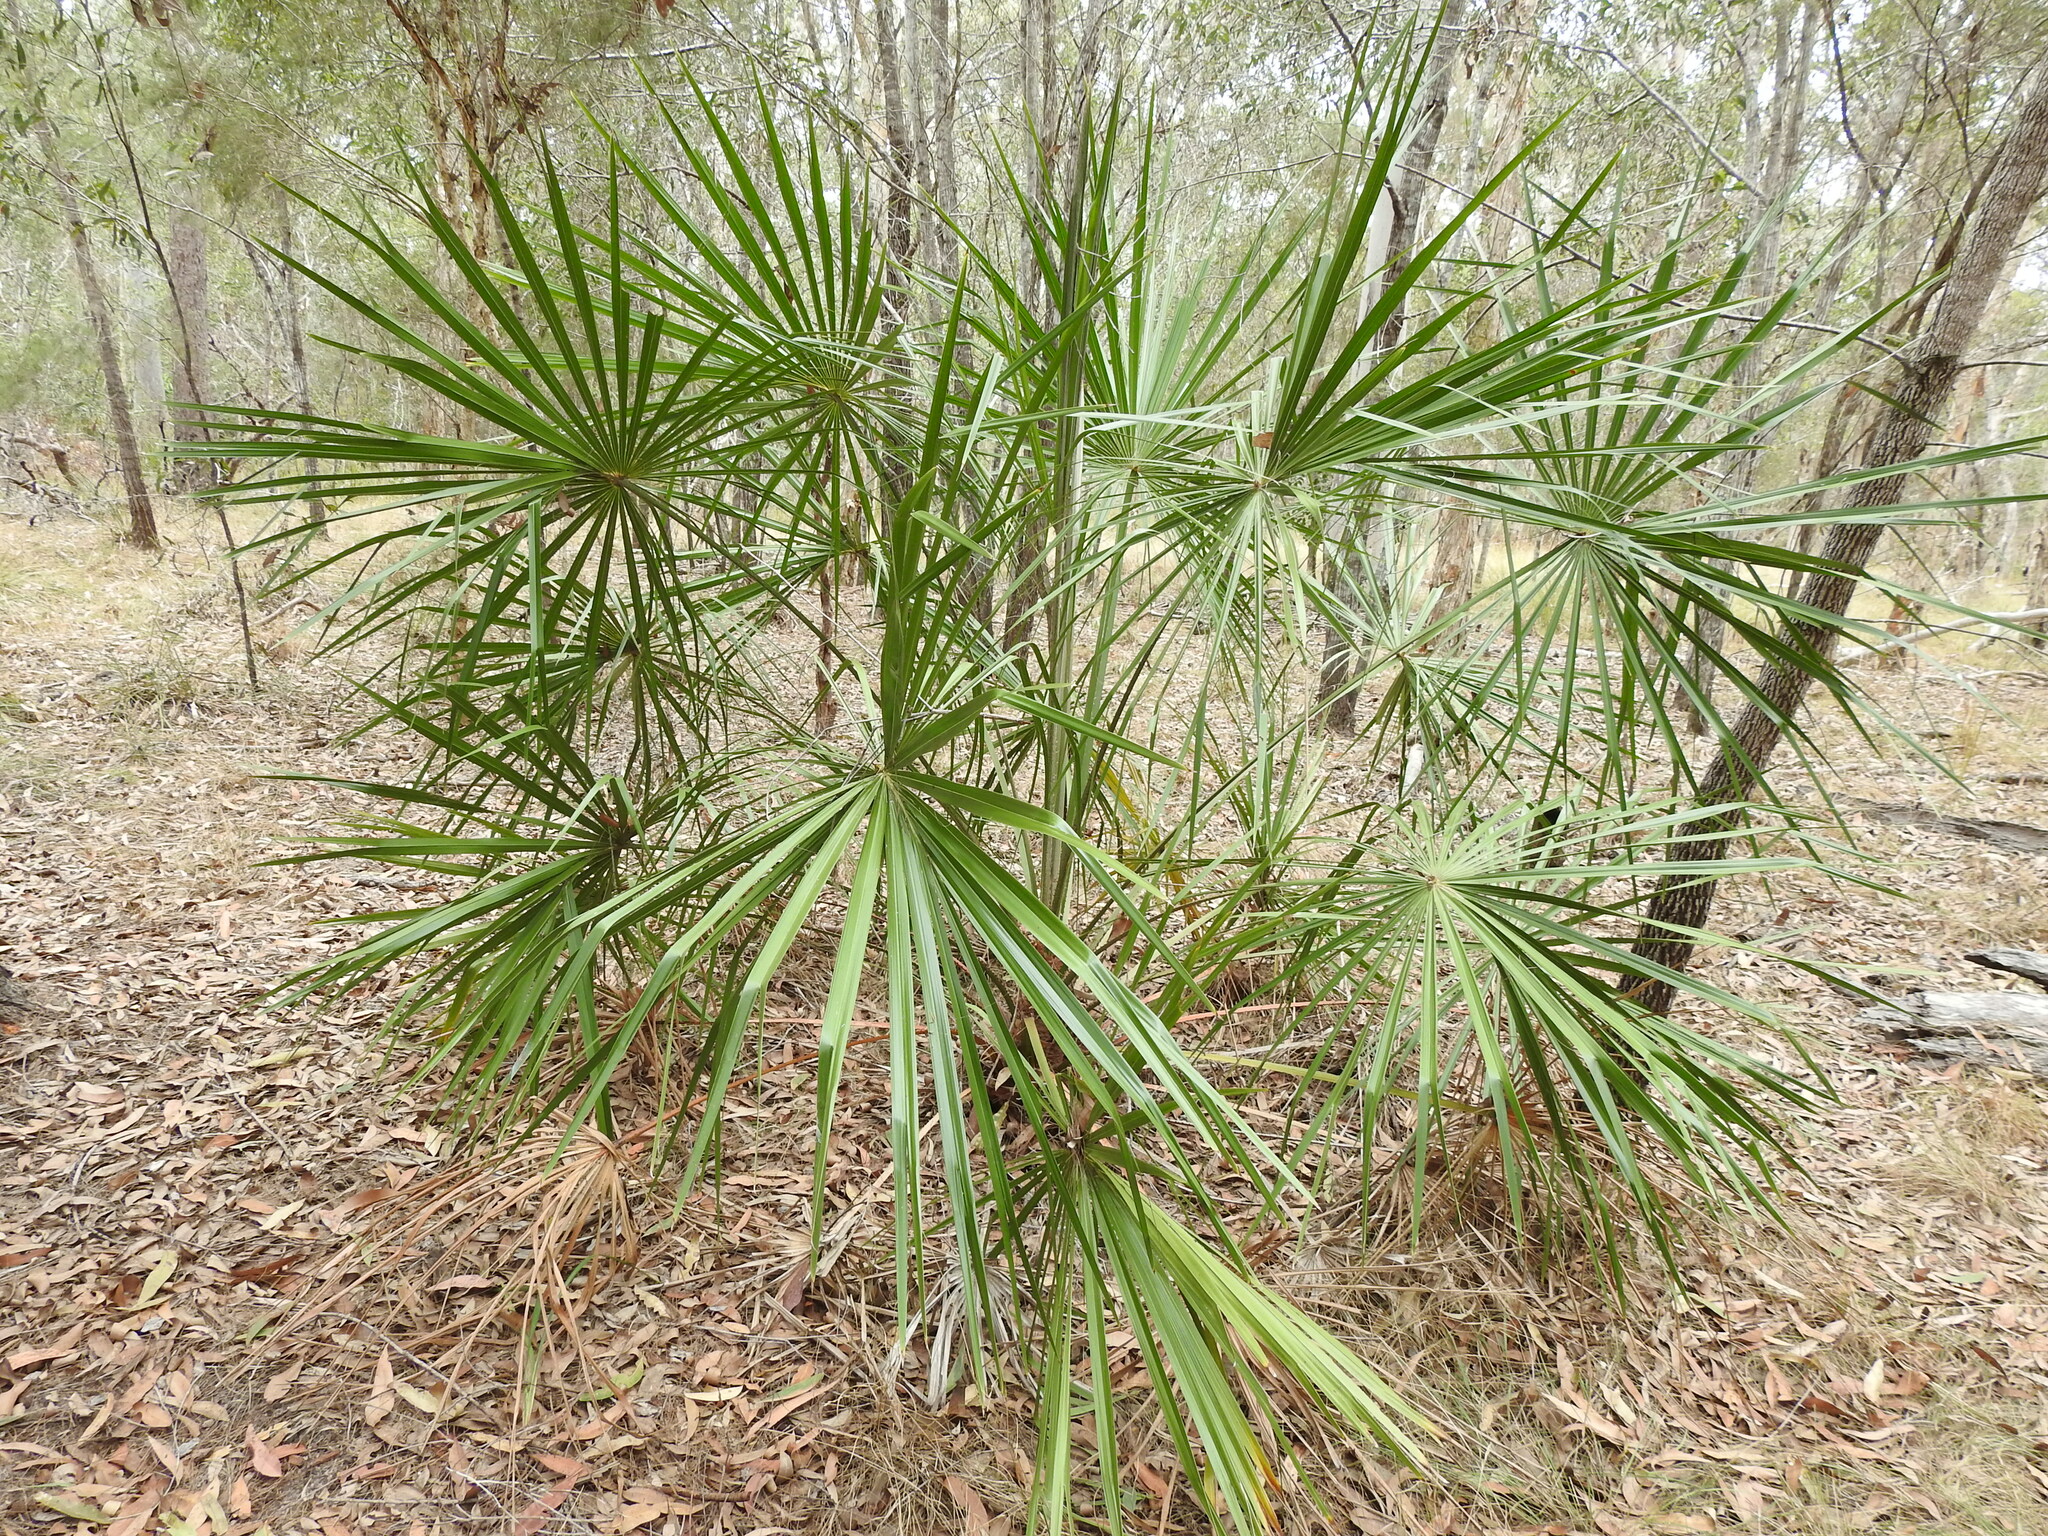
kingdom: Plantae
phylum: Tracheophyta
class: Liliopsida
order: Arecales
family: Arecaceae
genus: Livistona
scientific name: Livistona decora
